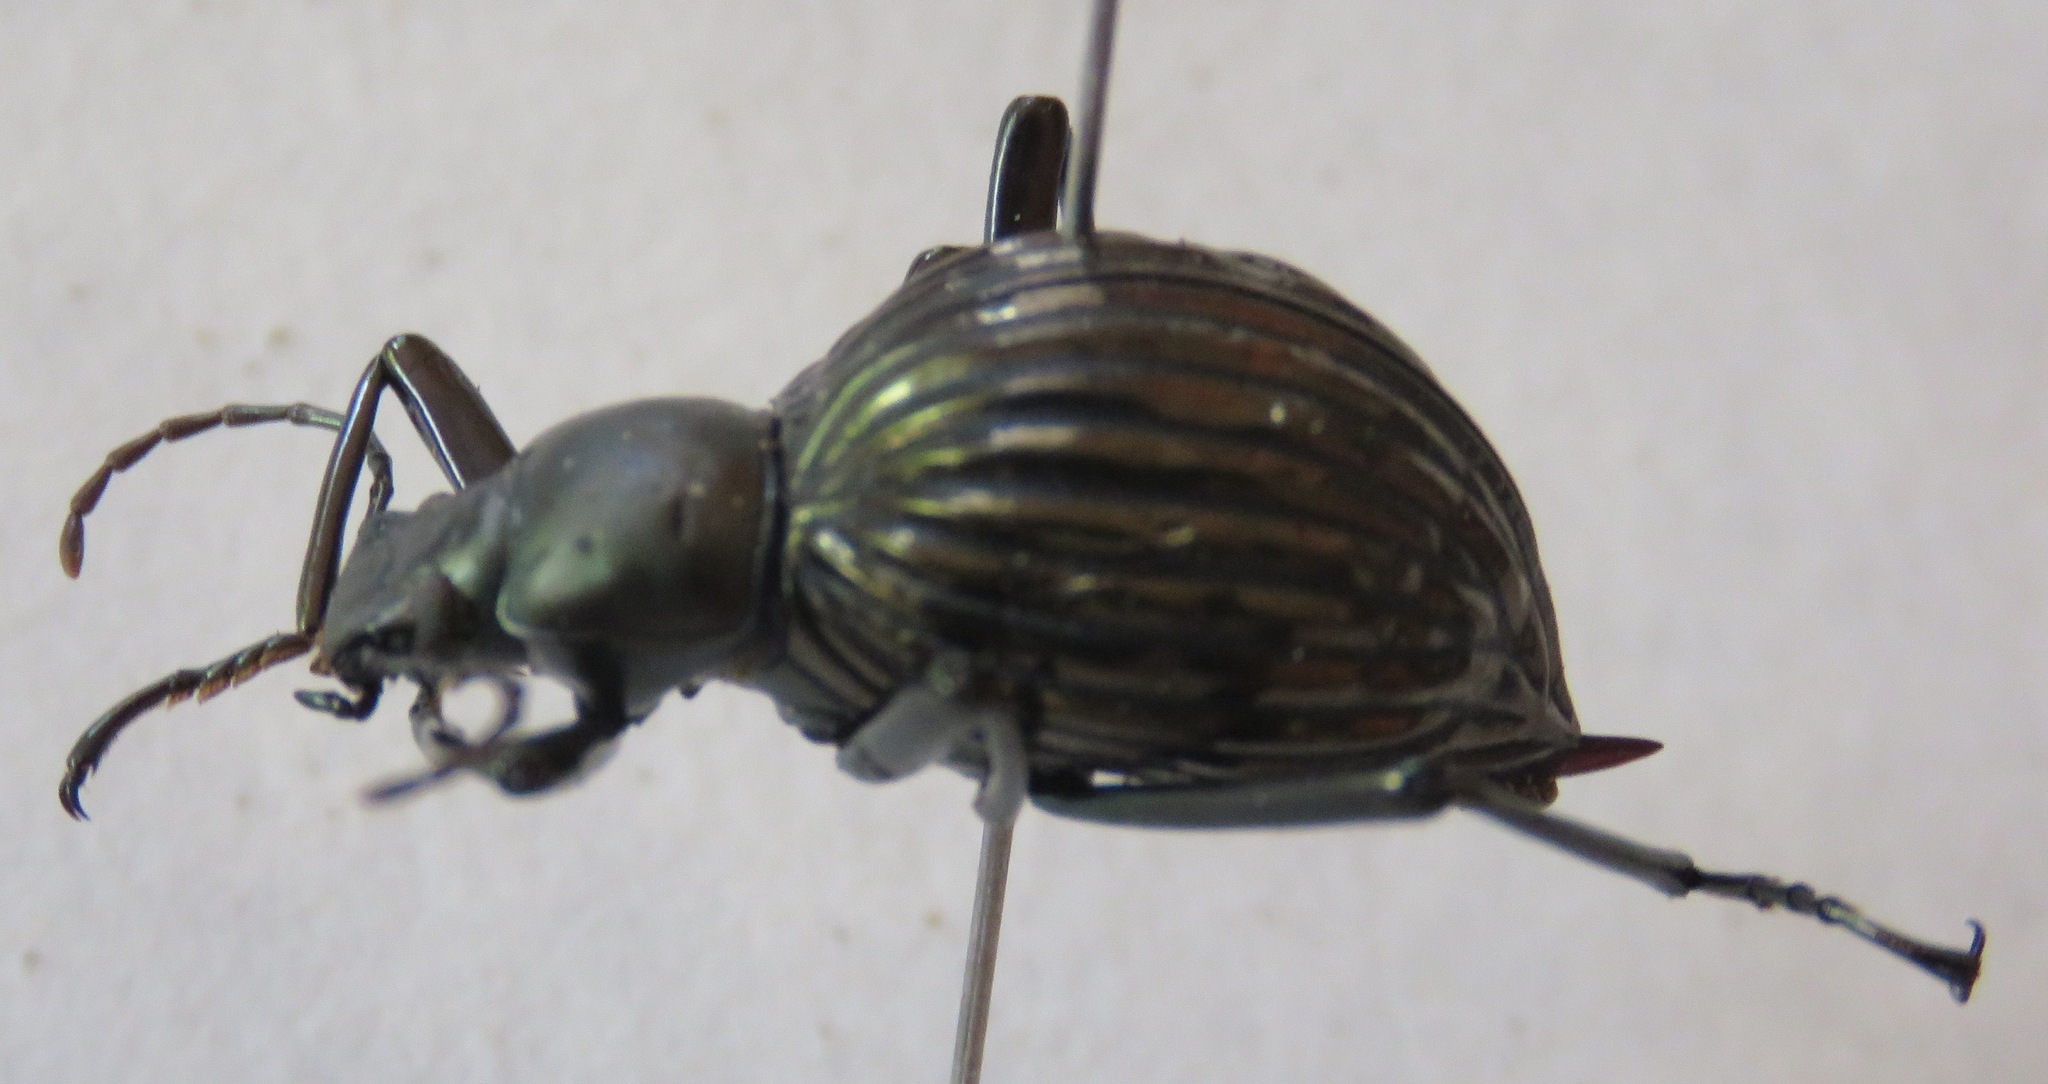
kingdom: Animalia
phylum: Arthropoda
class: Insecta
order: Coleoptera
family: Tenebrionidae
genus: Hegemona
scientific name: Hegemona flibuster
